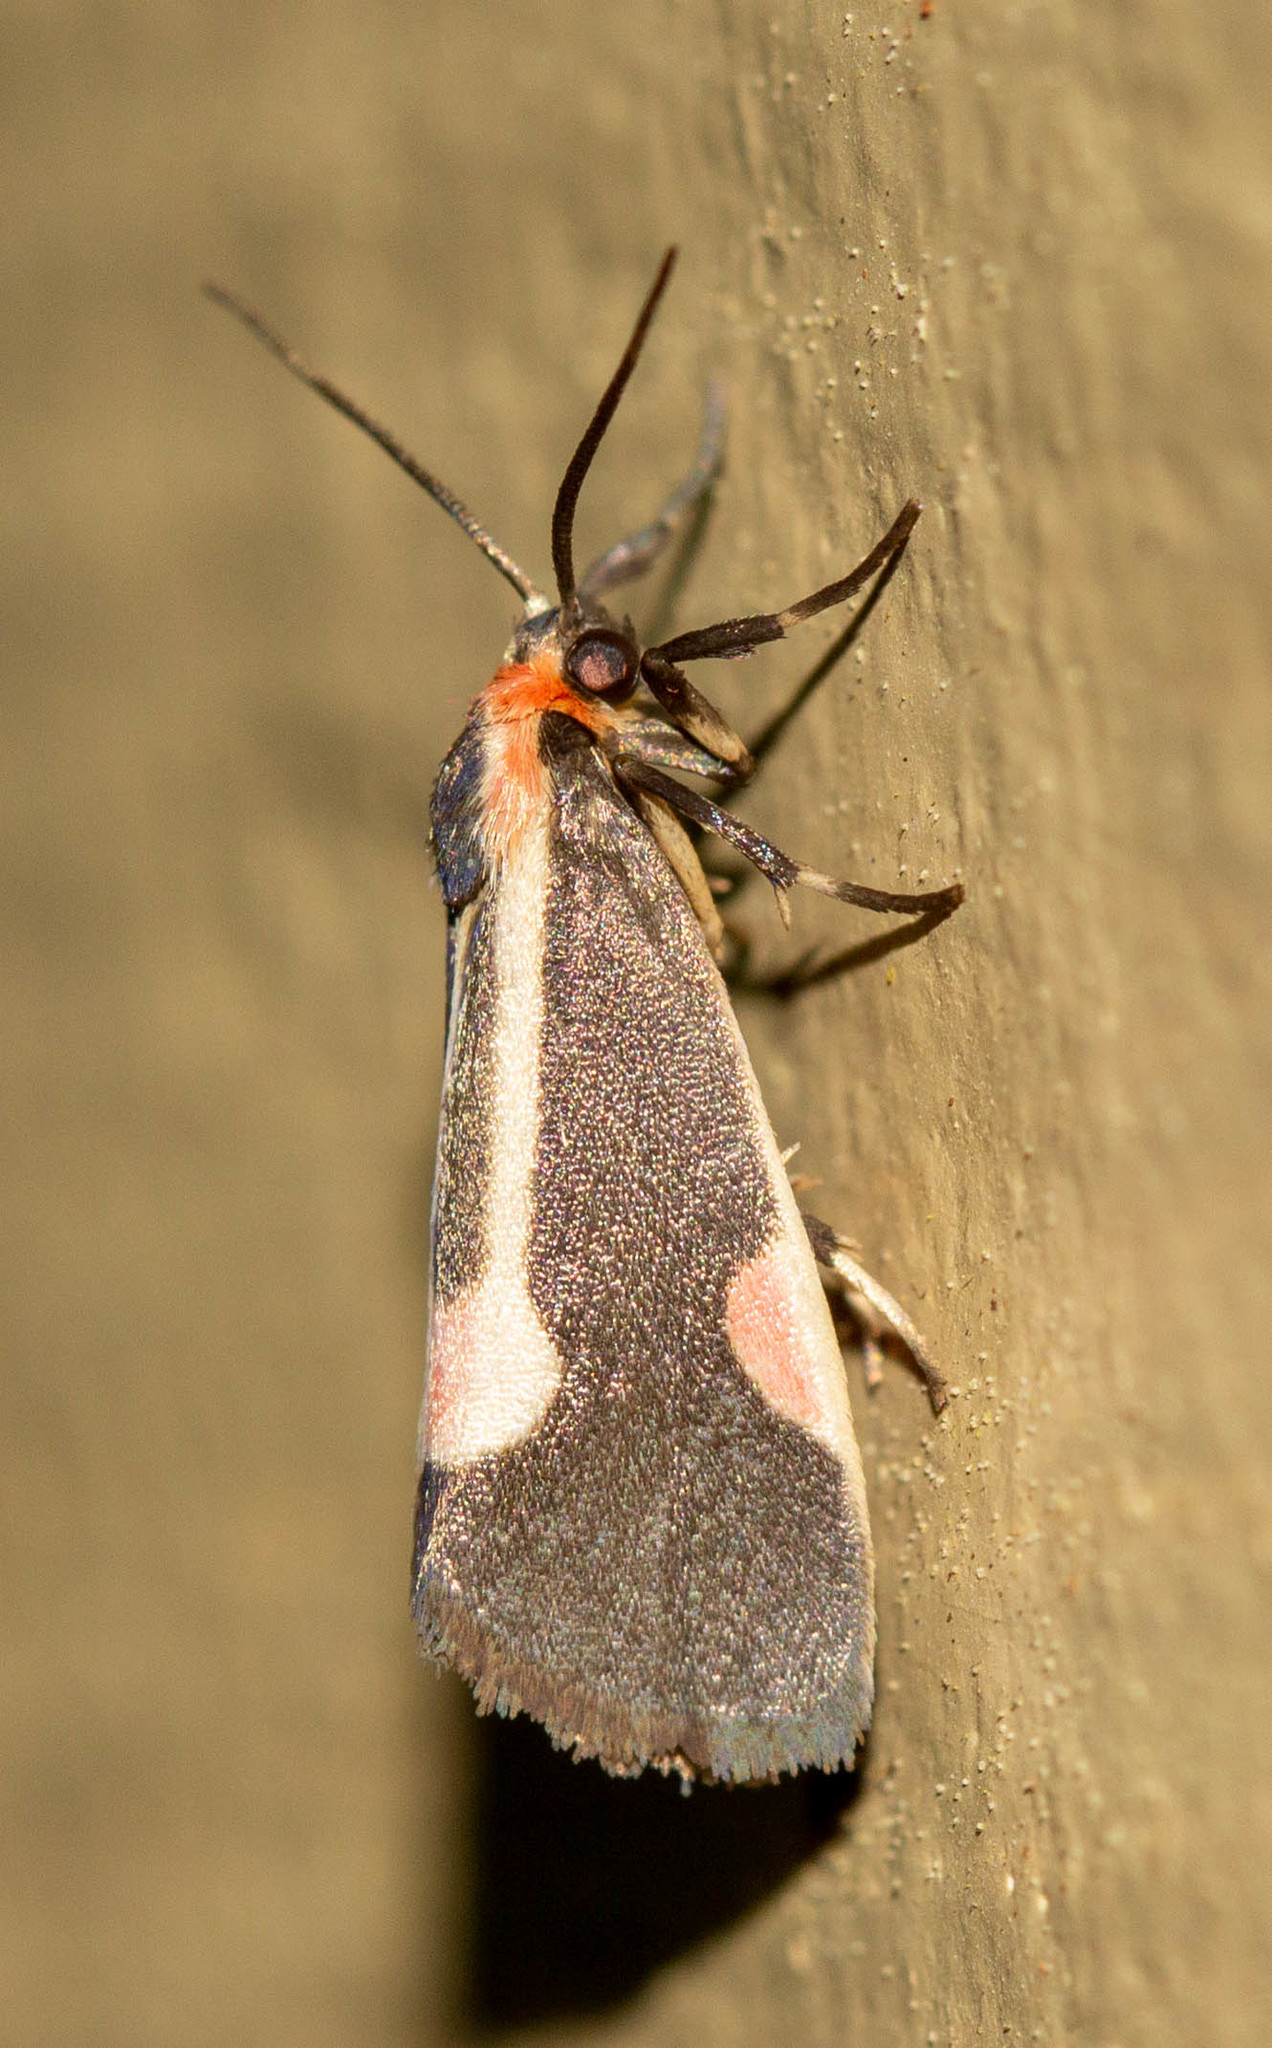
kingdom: Animalia
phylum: Arthropoda
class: Insecta
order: Lepidoptera
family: Erebidae
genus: Cisthene
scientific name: Cisthene packardii
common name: Packard's lichen moth
